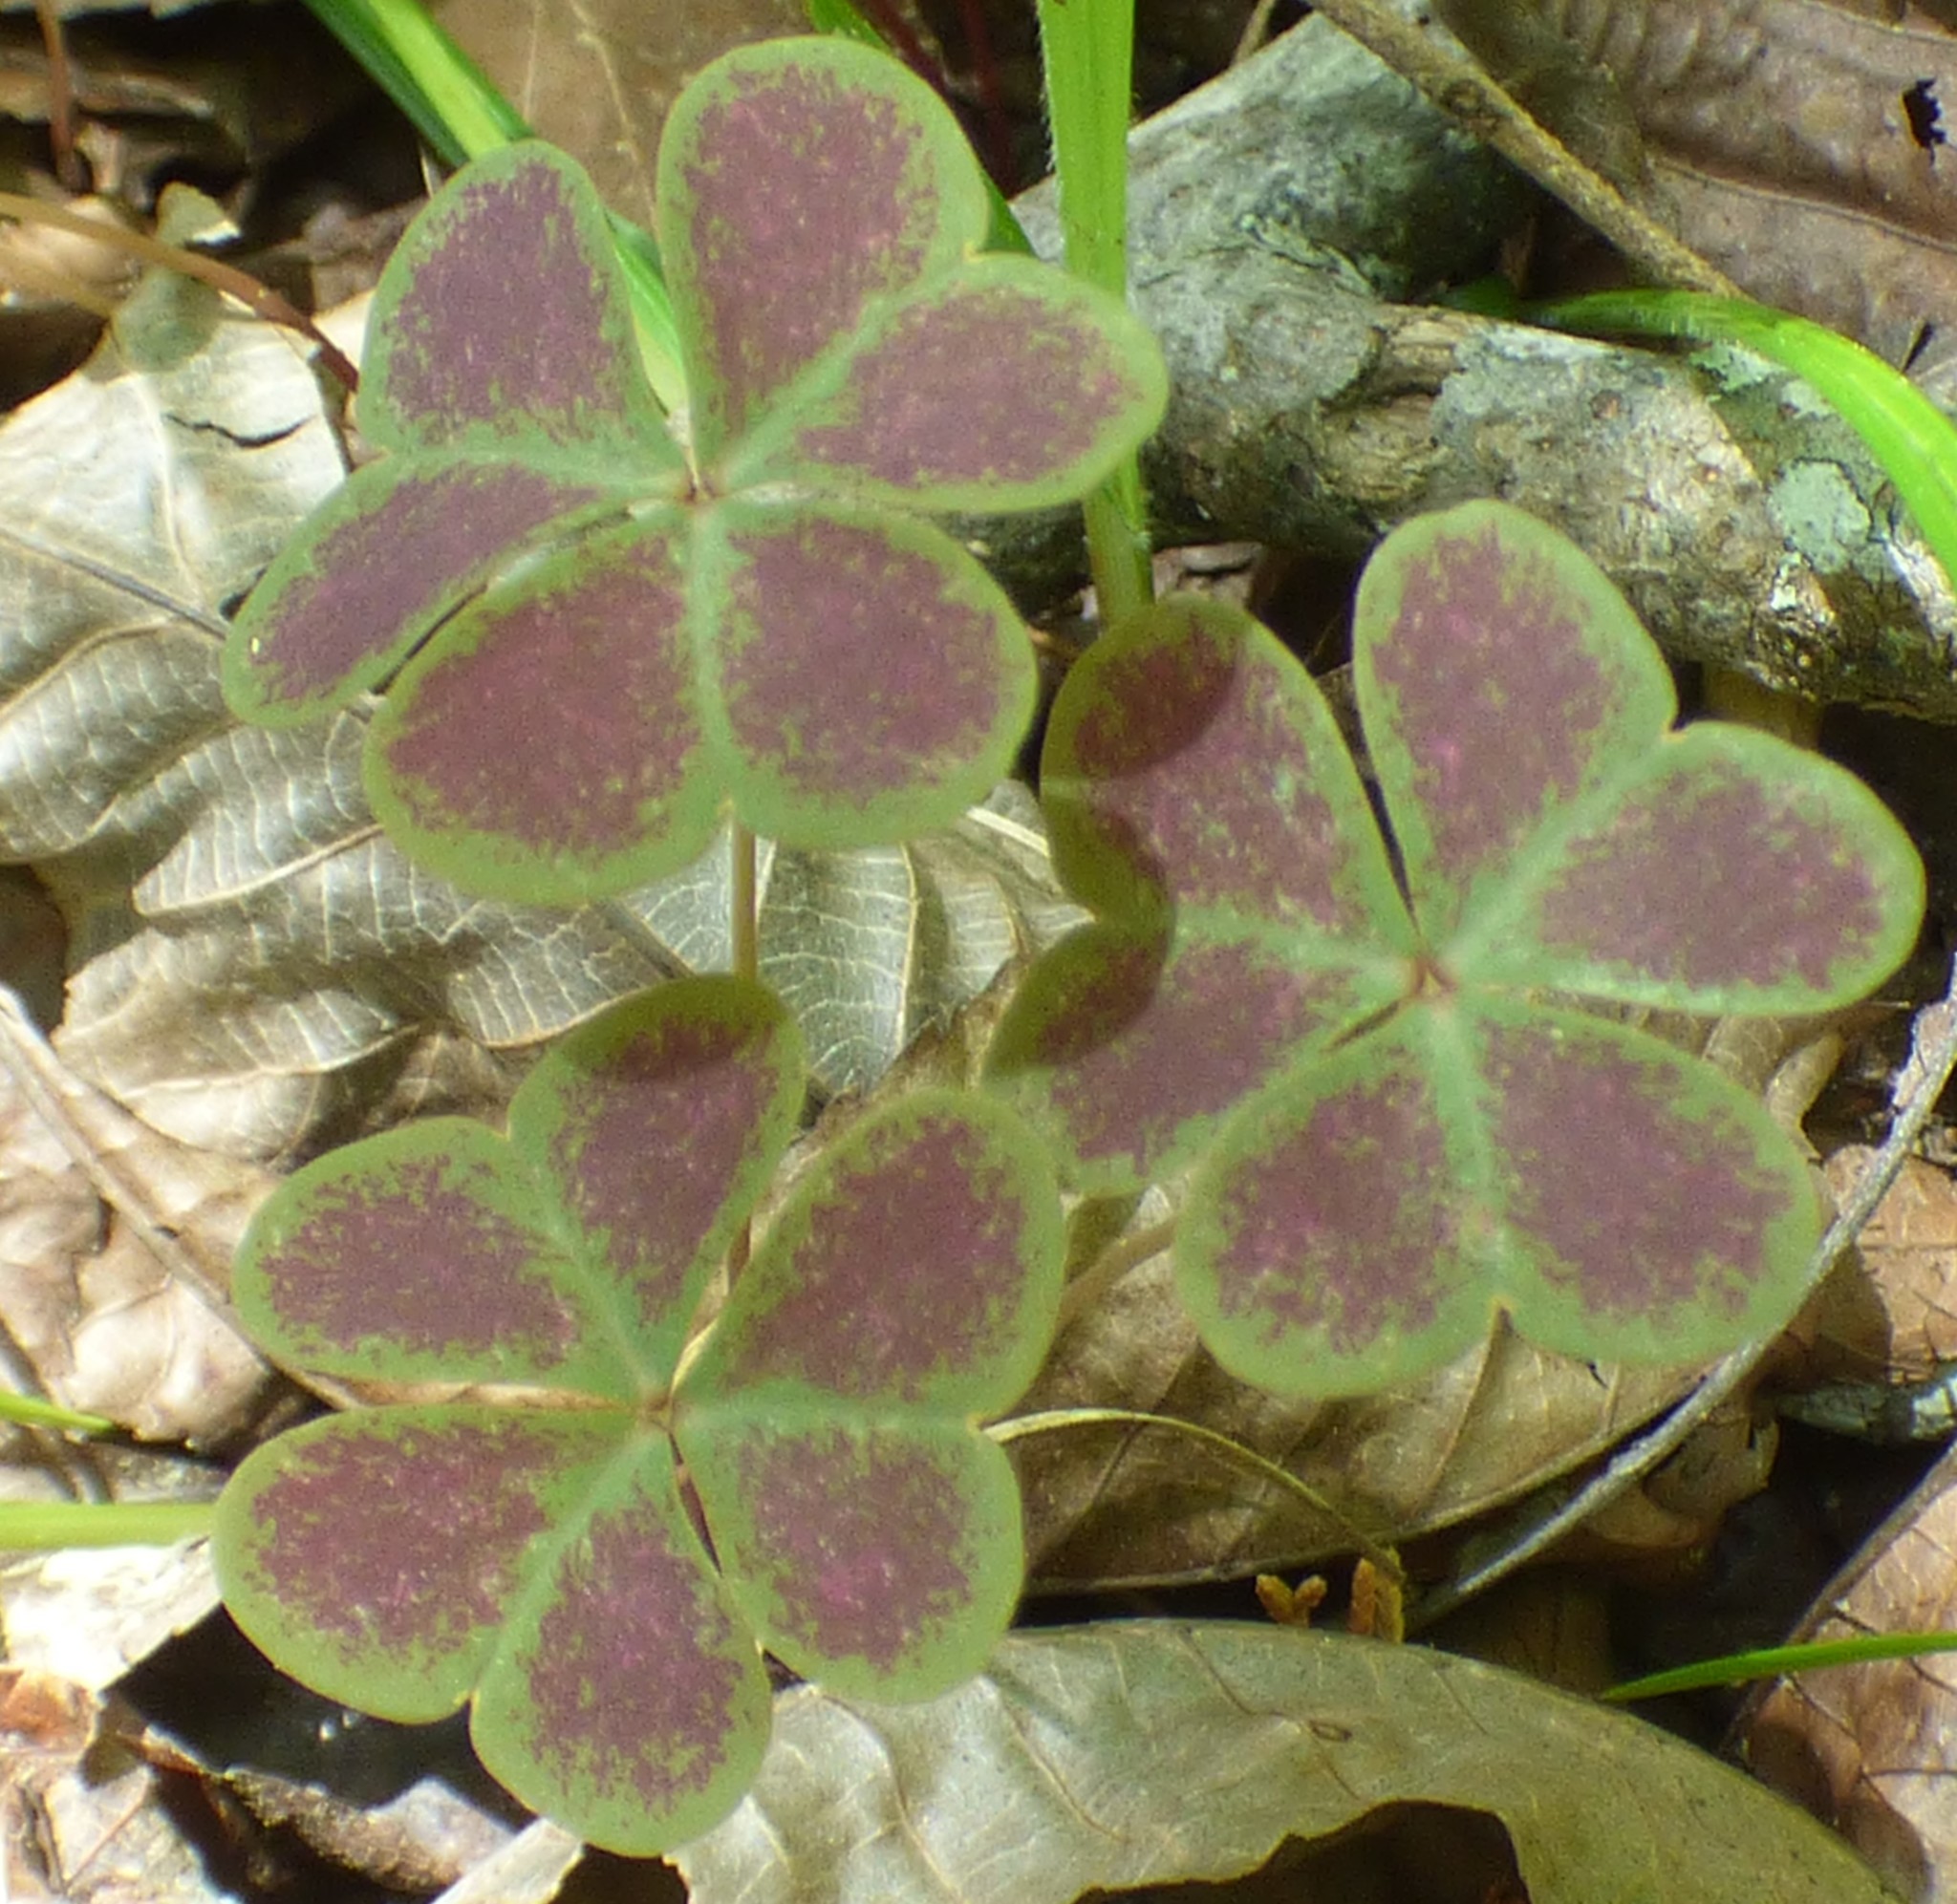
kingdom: Plantae
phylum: Tracheophyta
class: Magnoliopsida
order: Oxalidales
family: Oxalidaceae
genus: Oxalis
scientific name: Oxalis violacea
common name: Violet wood-sorrel
